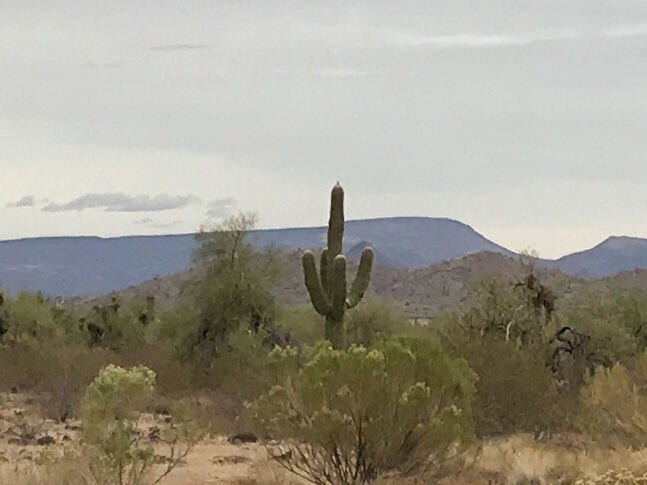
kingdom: Plantae
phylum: Tracheophyta
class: Magnoliopsida
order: Caryophyllales
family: Cactaceae
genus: Carnegiea
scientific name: Carnegiea gigantea
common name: Saguaro
